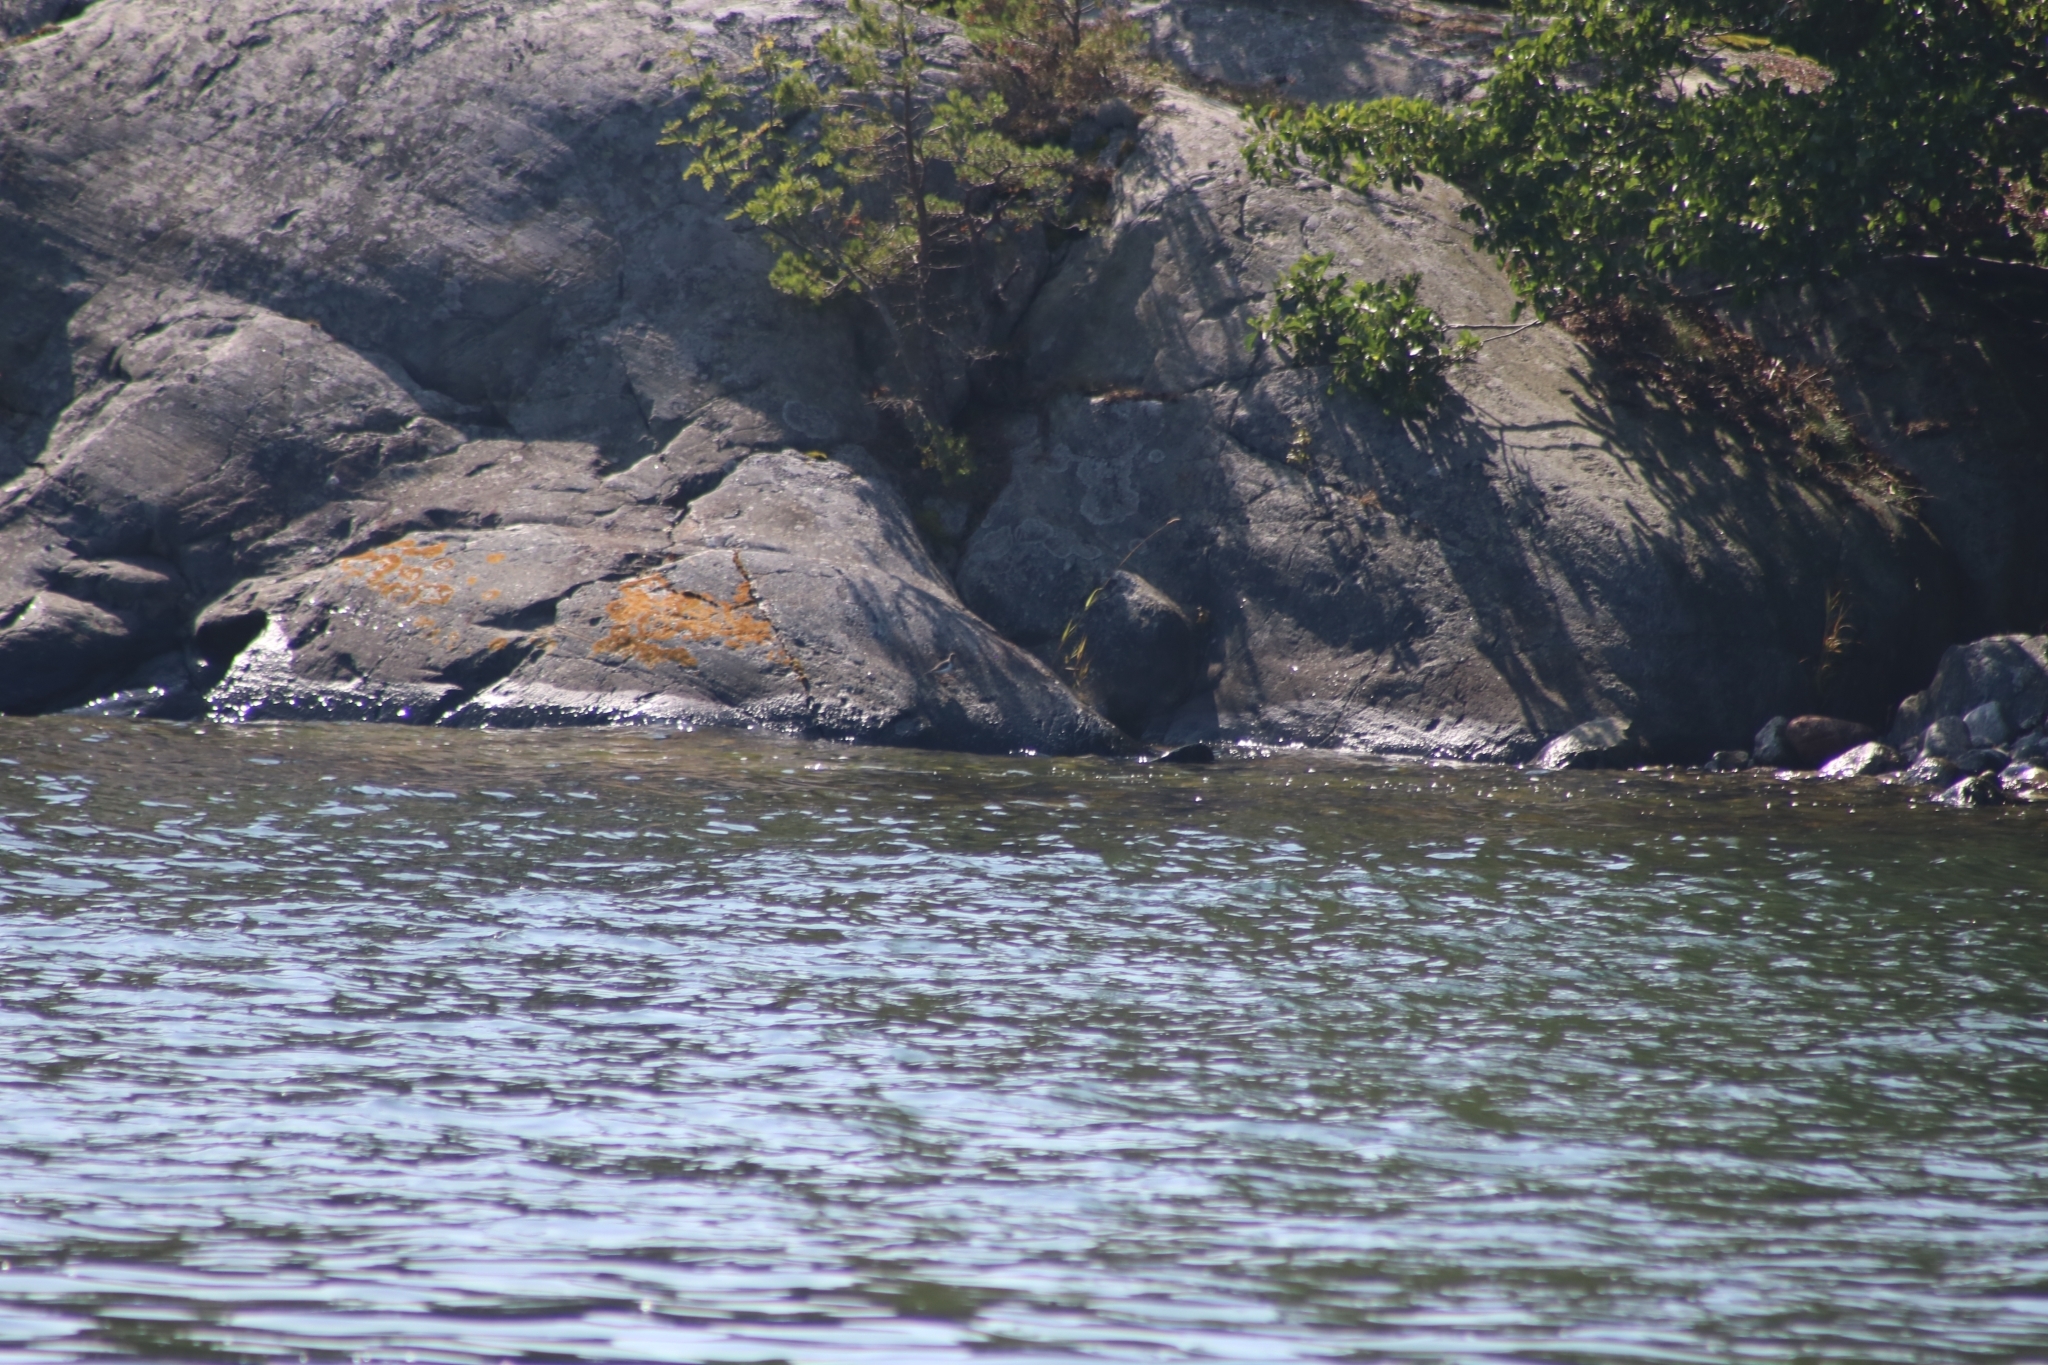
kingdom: Animalia
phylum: Chordata
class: Aves
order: Charadriiformes
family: Scolopacidae
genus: Actitis
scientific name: Actitis hypoleucos
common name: Common sandpiper
